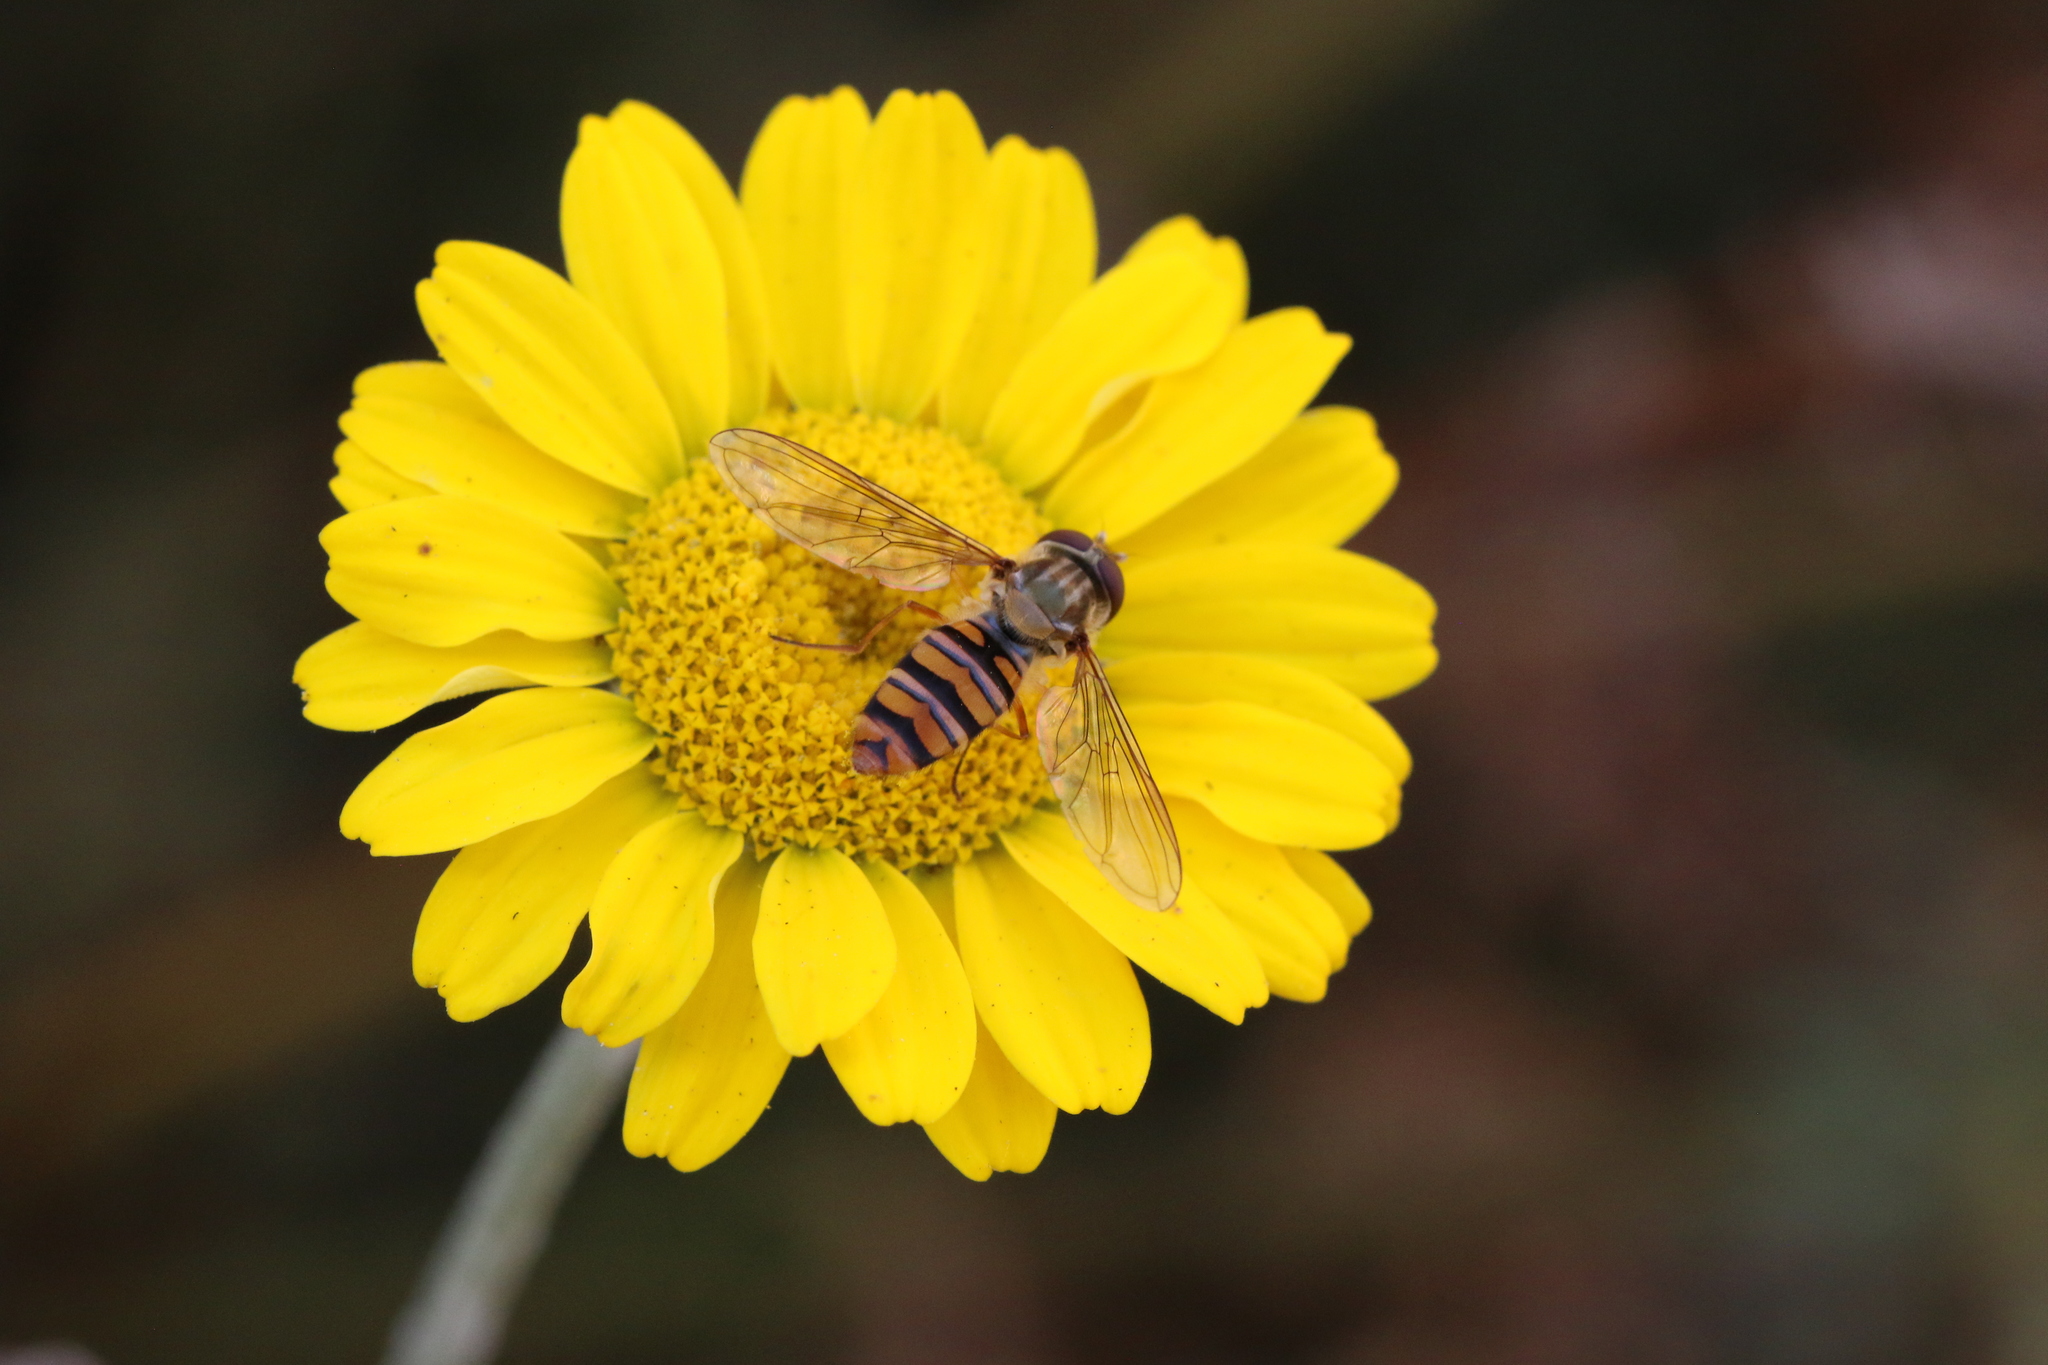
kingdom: Animalia
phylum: Arthropoda
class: Insecta
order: Diptera
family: Syrphidae
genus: Episyrphus
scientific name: Episyrphus balteatus
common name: Marmalade hoverfly
